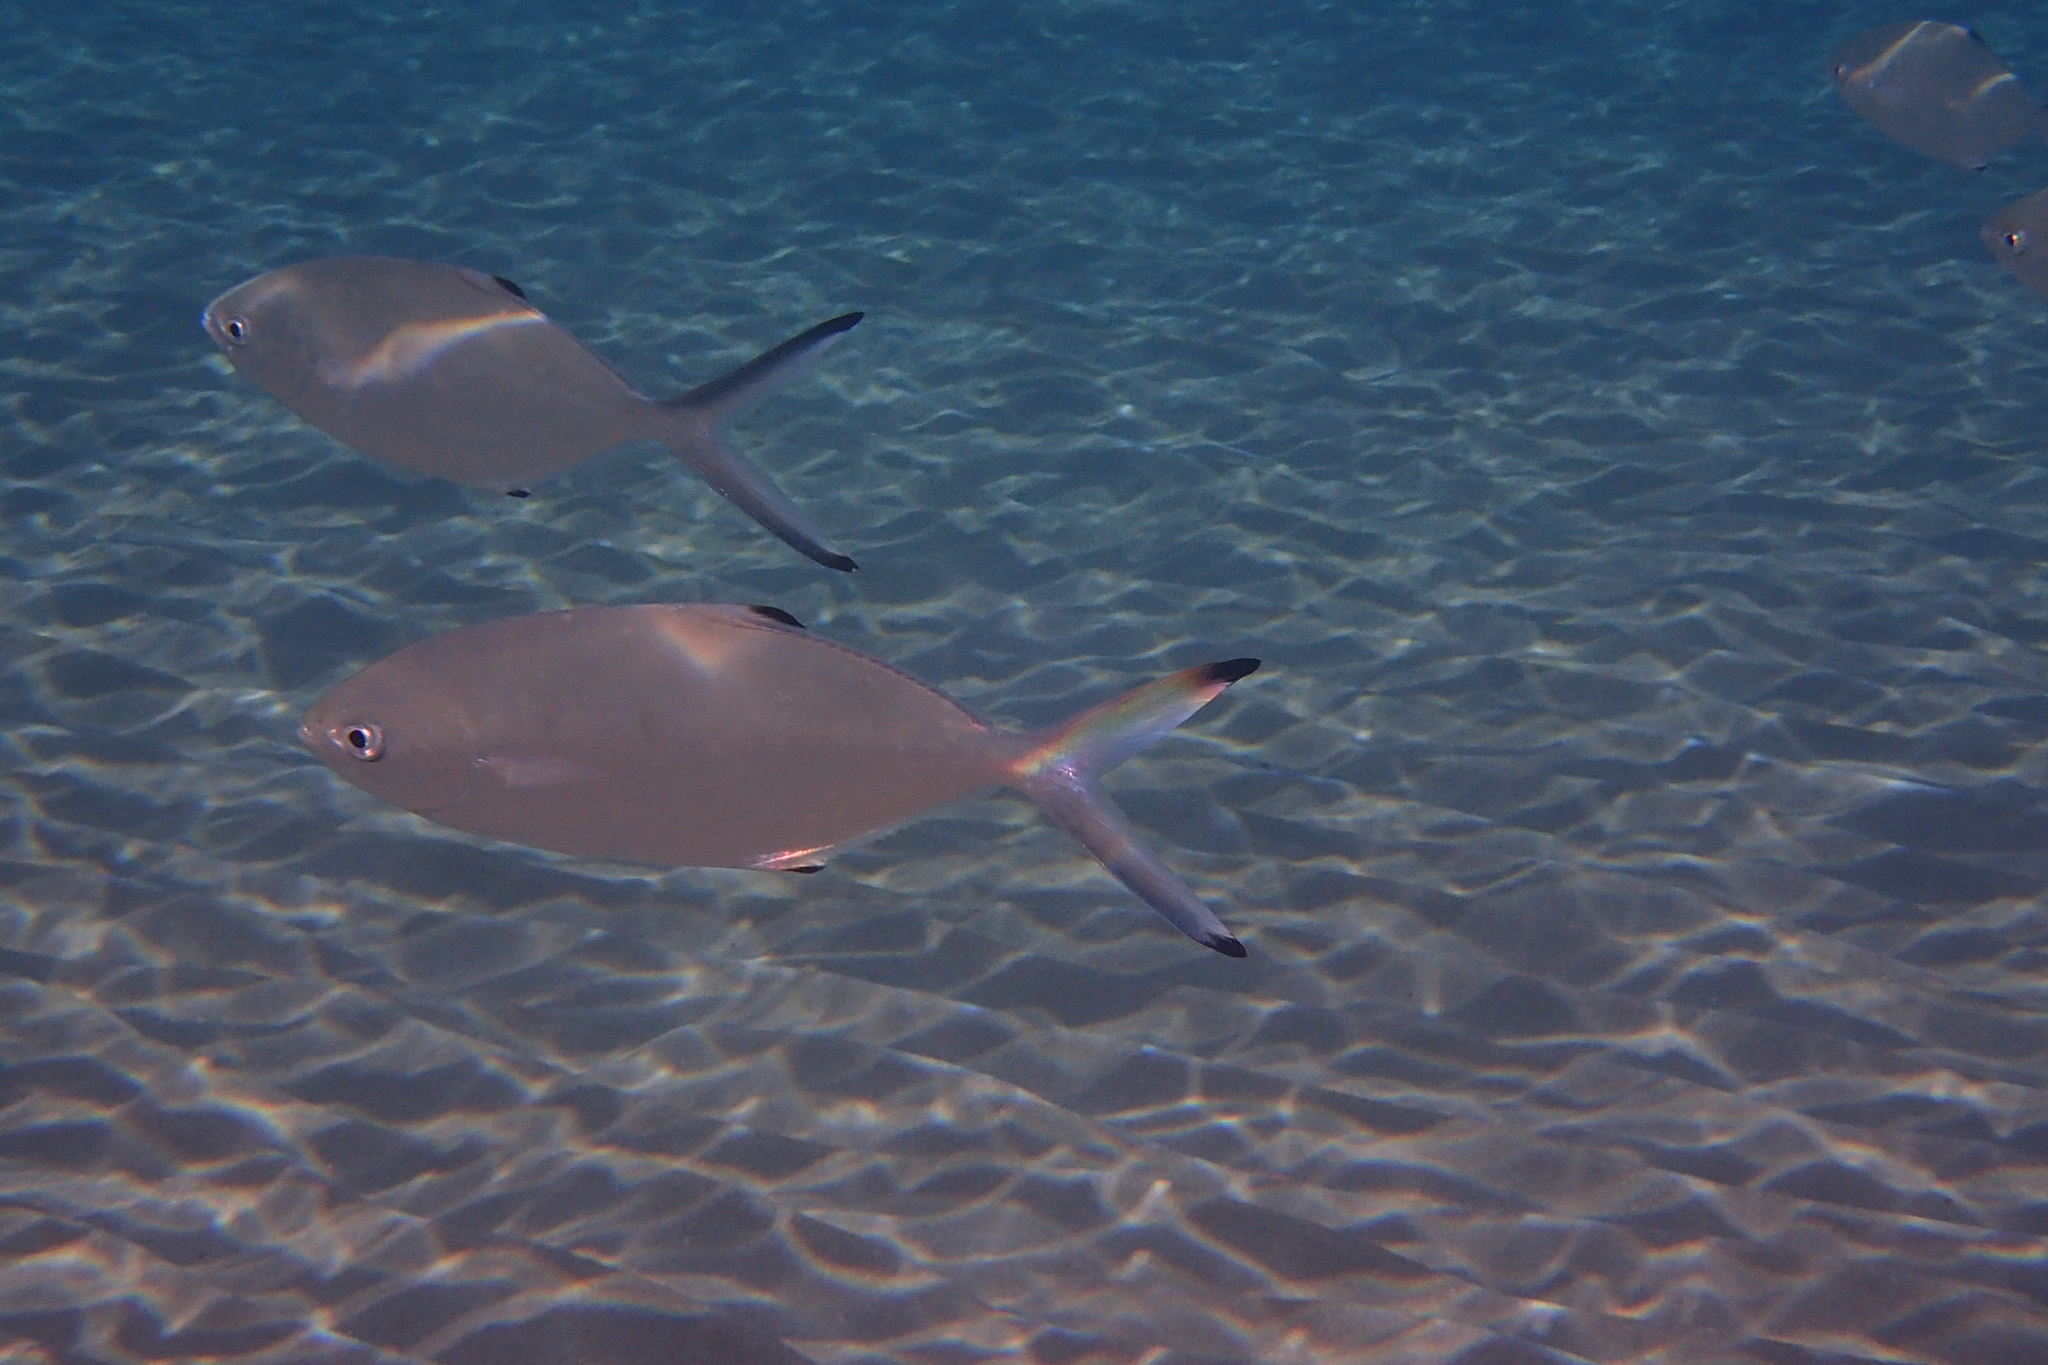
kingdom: Animalia
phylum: Chordata
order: Perciformes
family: Carangidae
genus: Trachinotus
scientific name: Trachinotus ovatus
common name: Pompano
